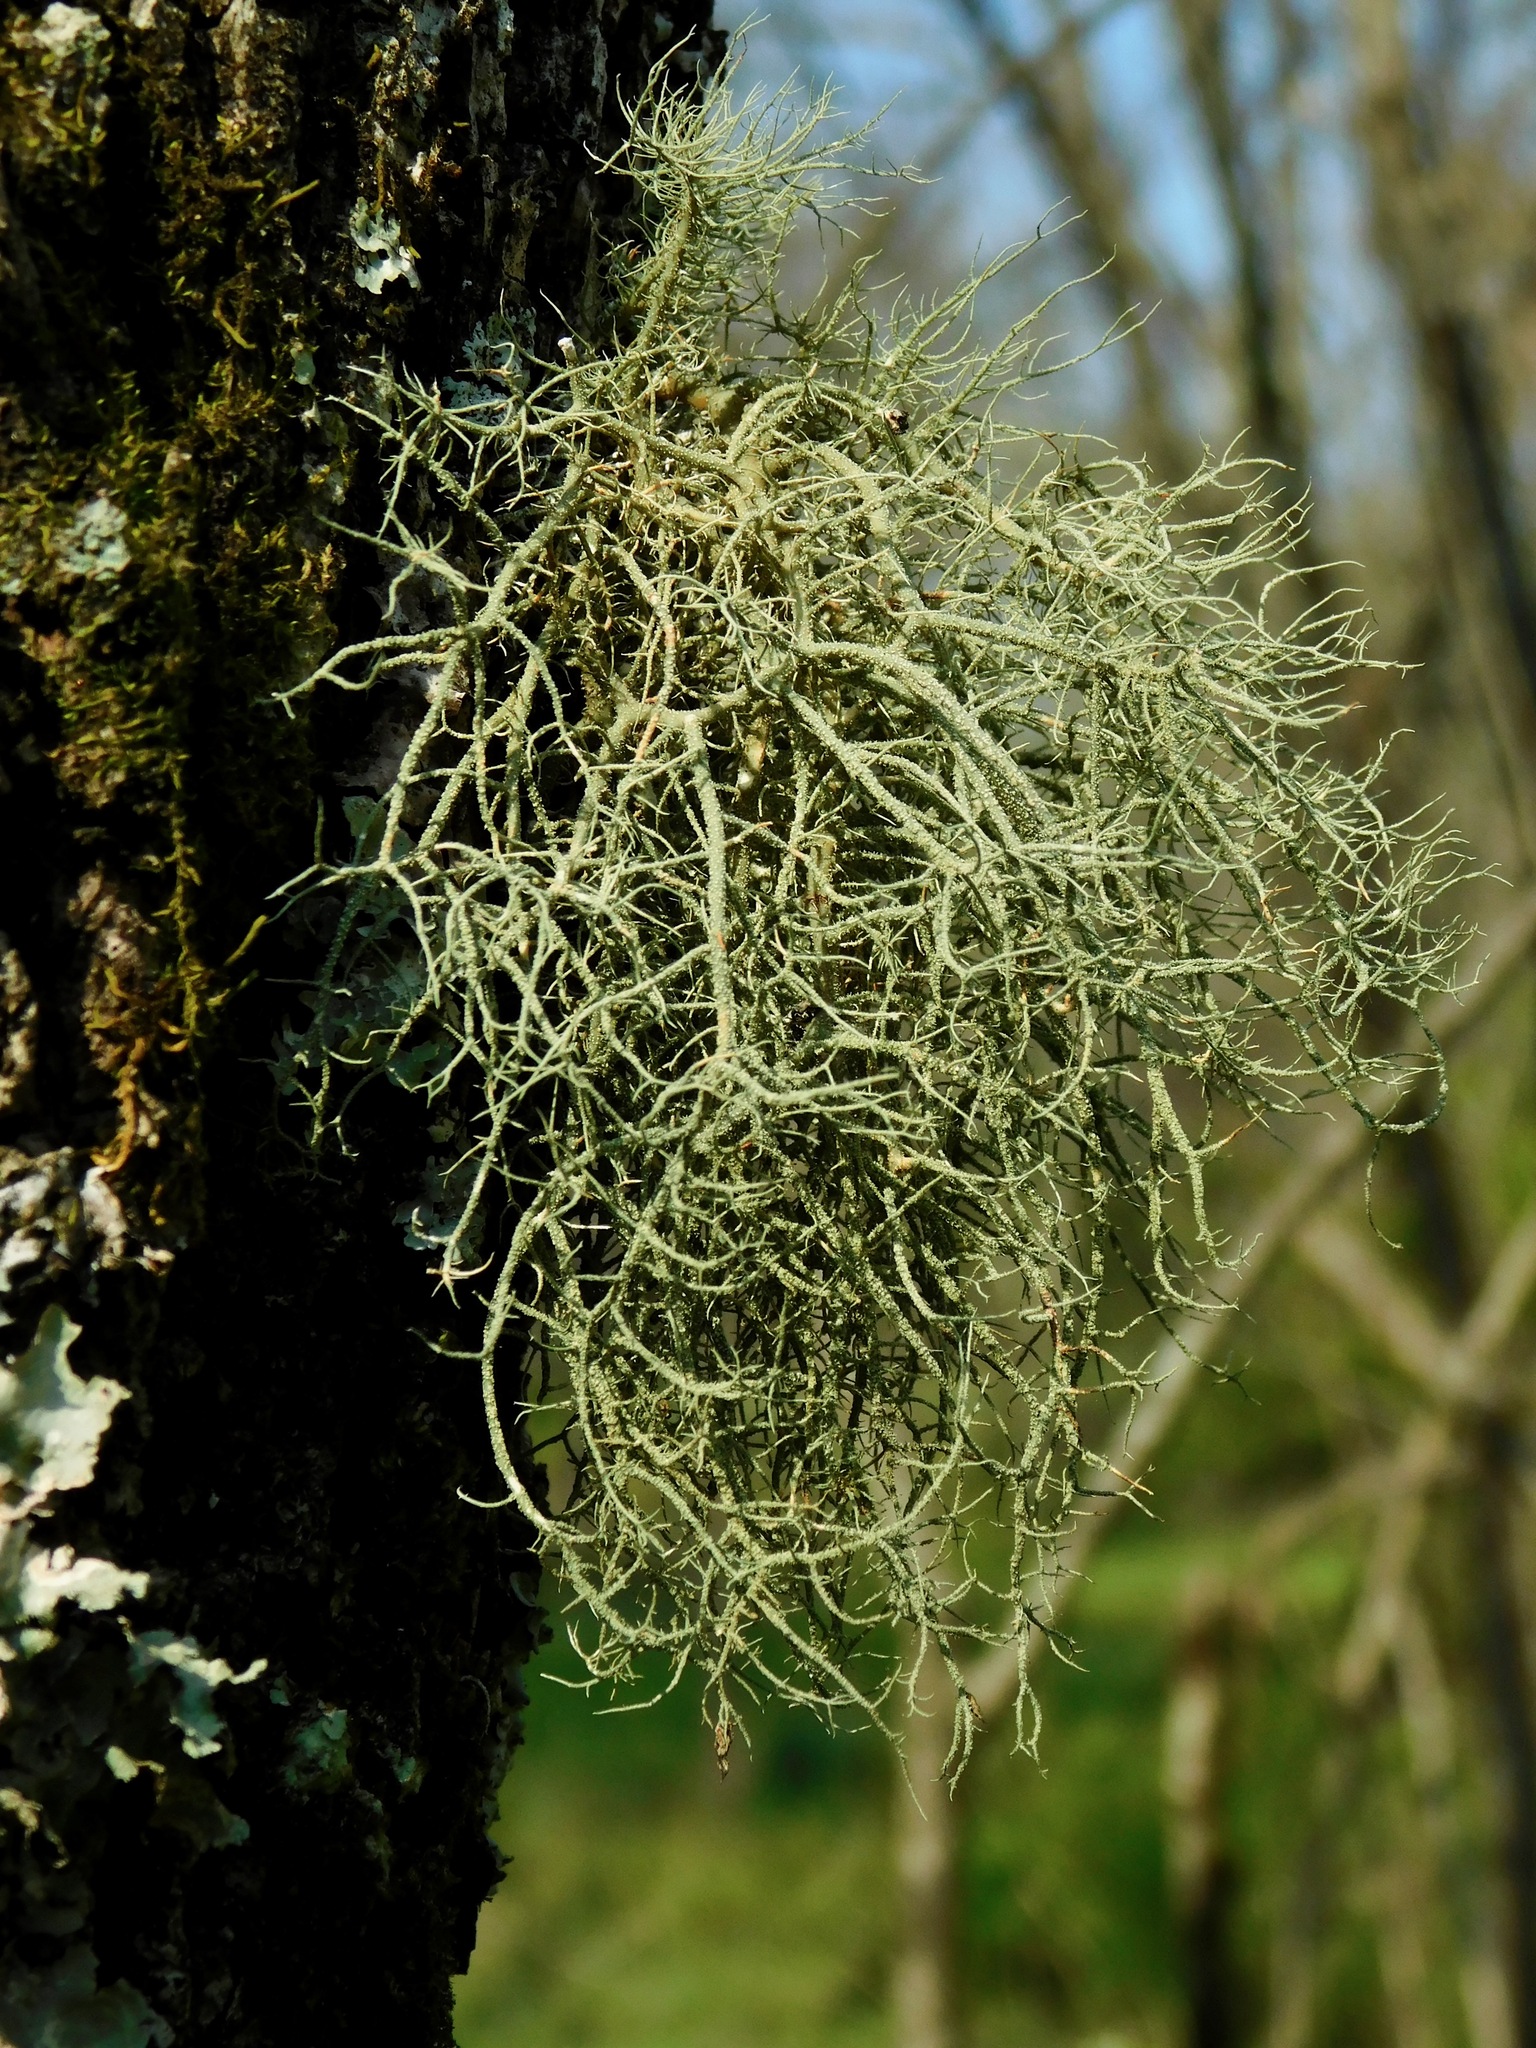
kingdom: Fungi
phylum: Ascomycota
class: Lecanoromycetes
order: Lecanorales
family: Parmeliaceae
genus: Usnea
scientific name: Usnea subscabrosa
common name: Beard lichen
